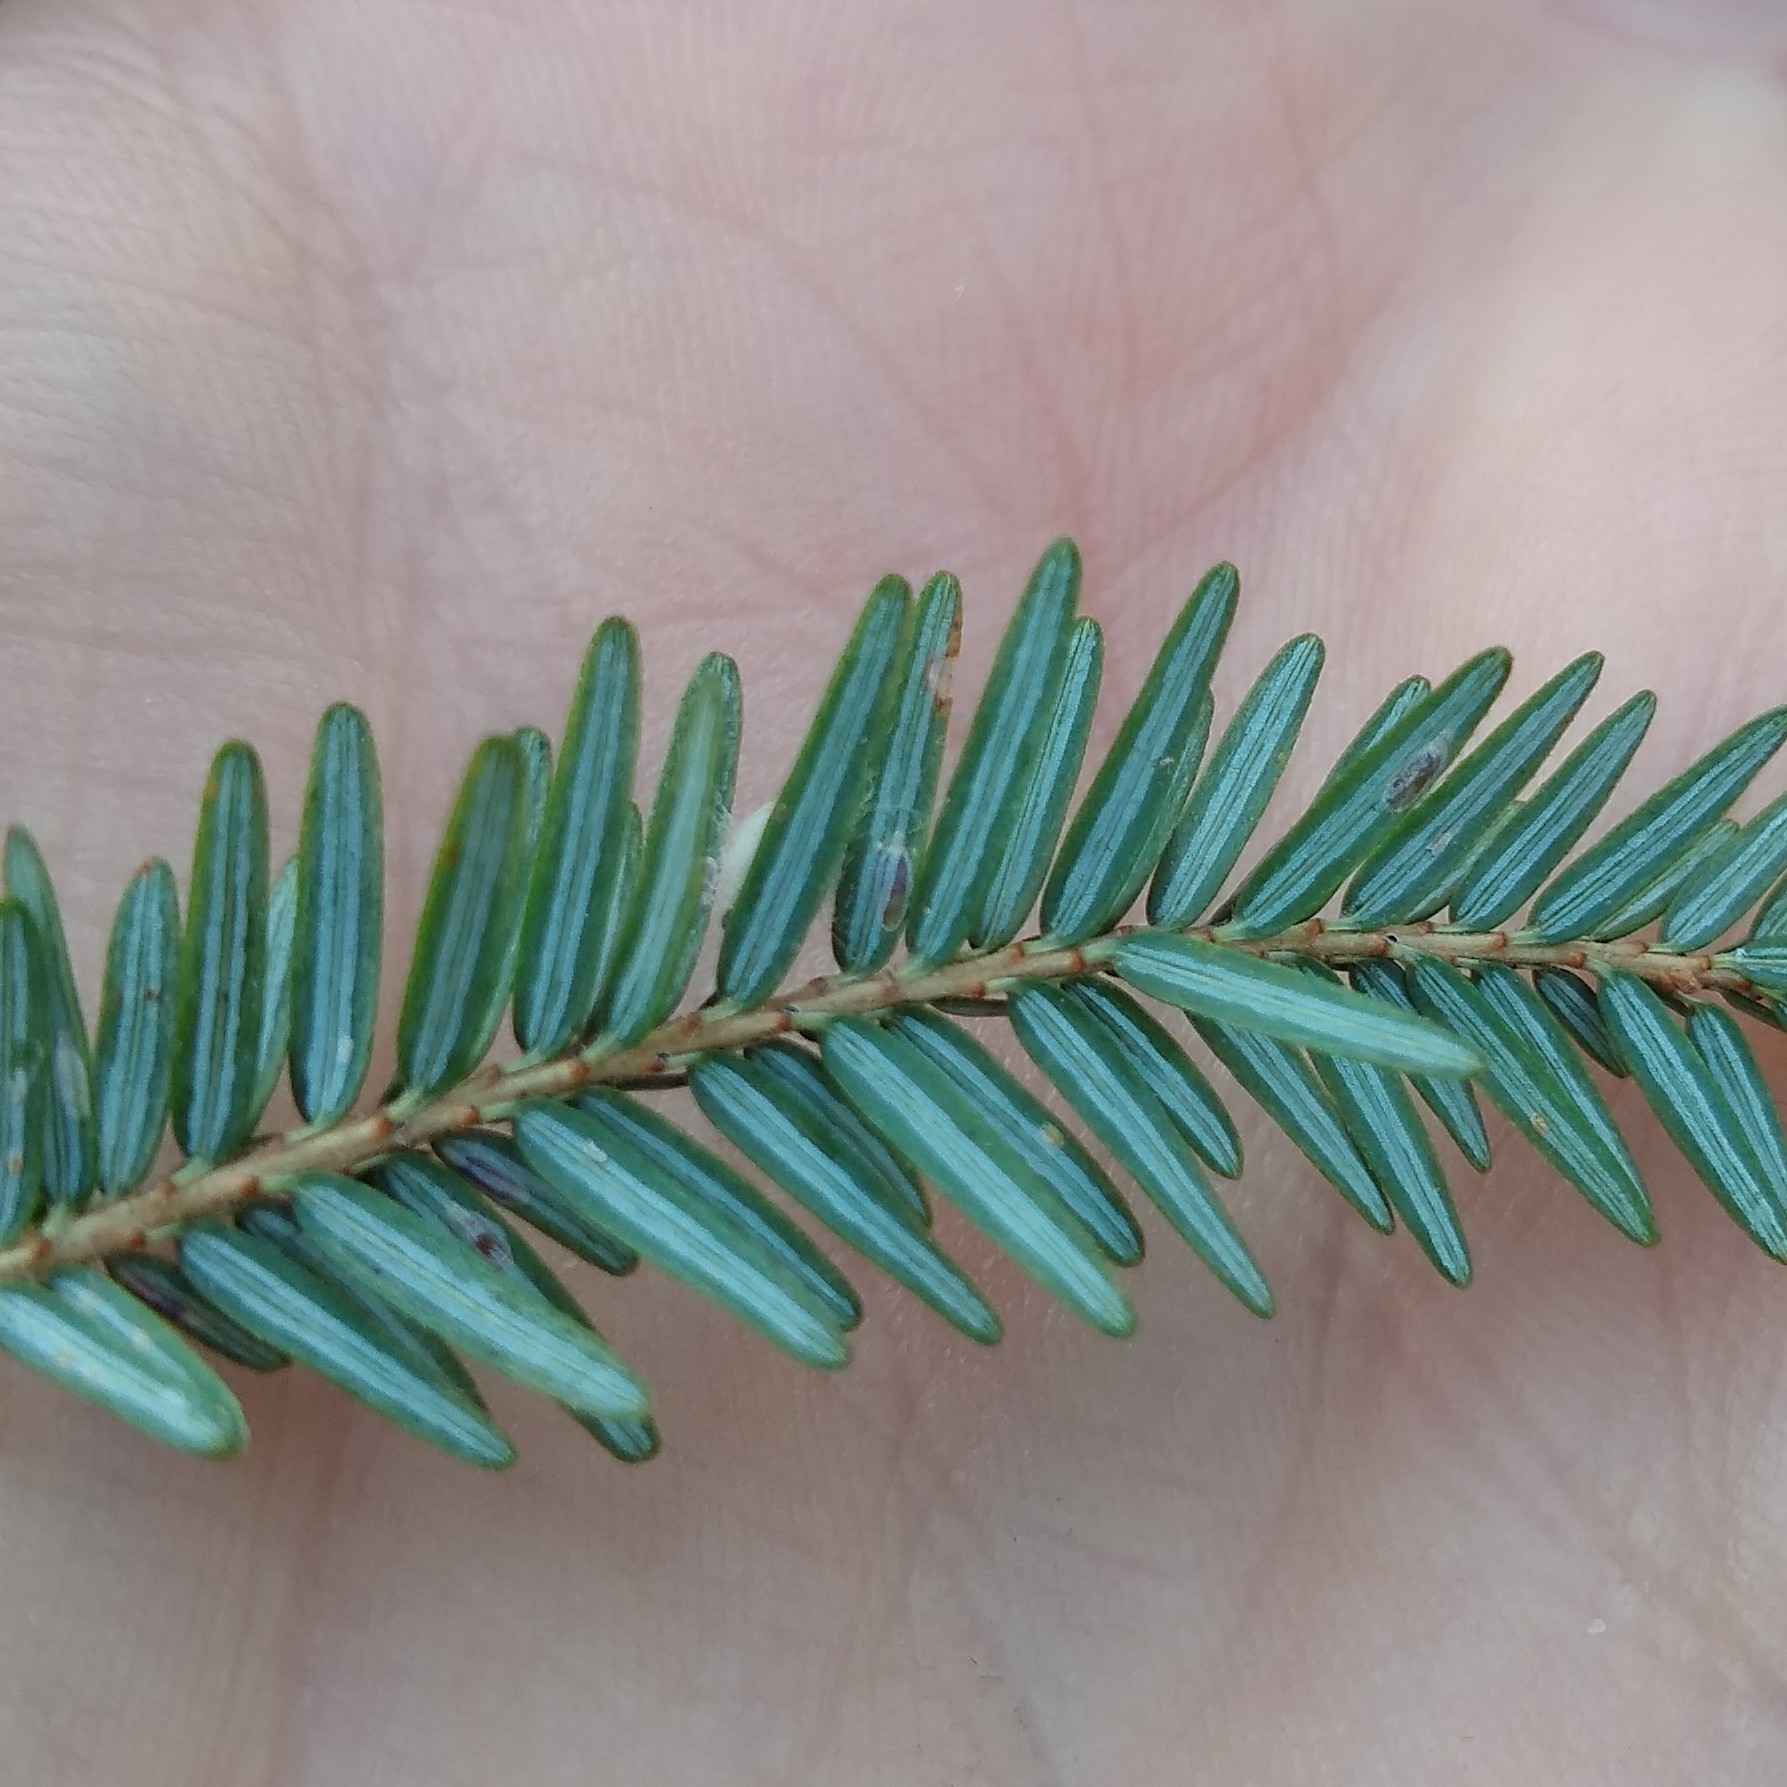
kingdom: Animalia
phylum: Arthropoda
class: Insecta
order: Hemiptera
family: Diaspididae
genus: Fiorinia
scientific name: Fiorinia externa
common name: Elongate hemlock scale
